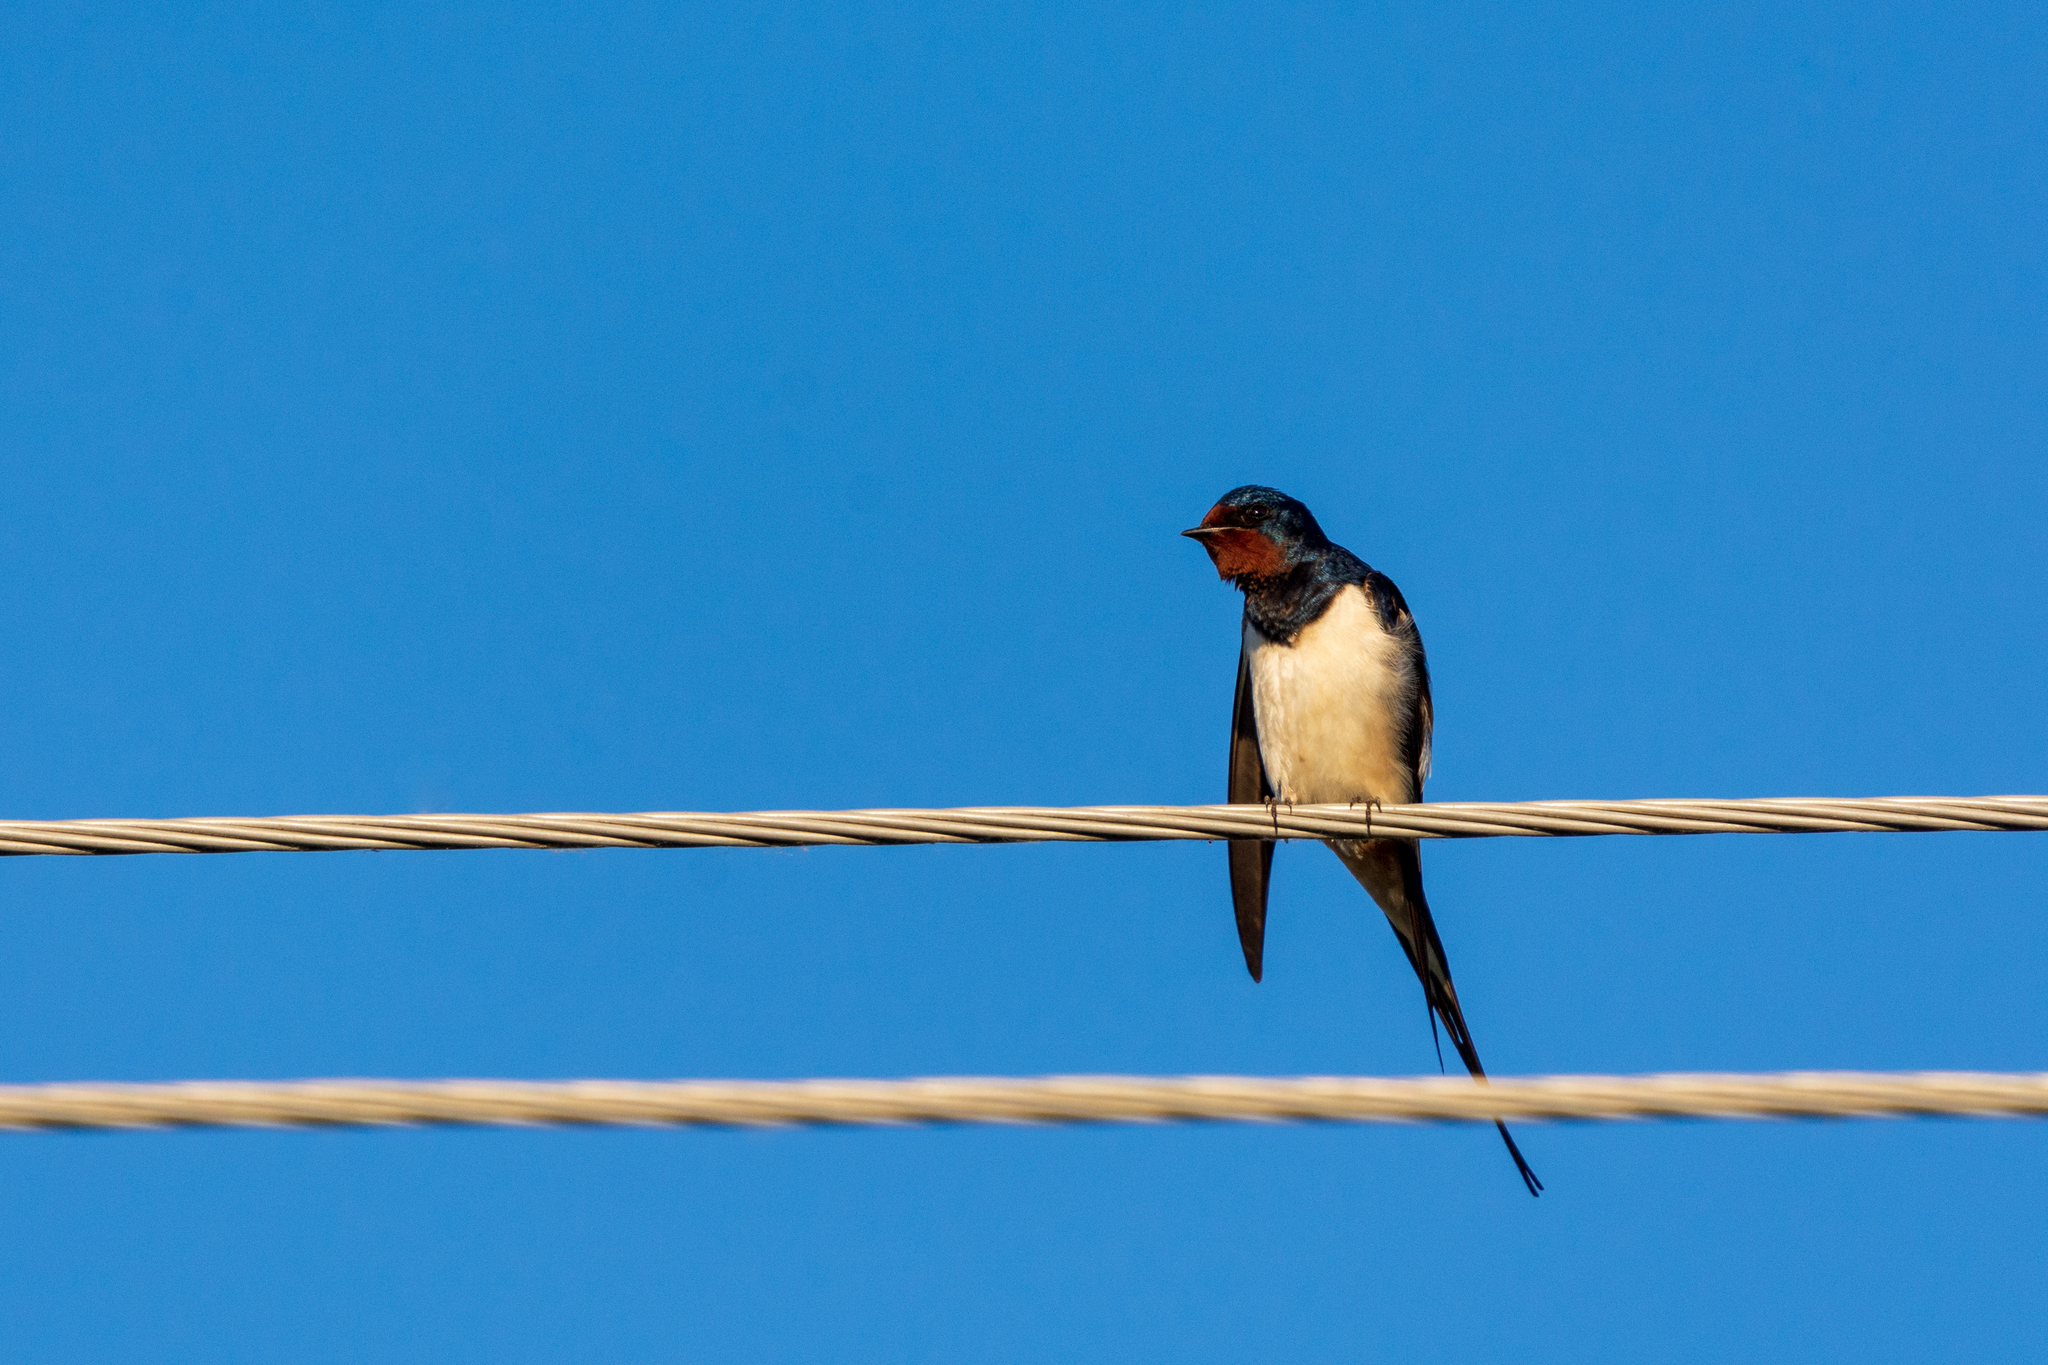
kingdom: Animalia
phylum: Chordata
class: Aves
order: Passeriformes
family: Hirundinidae
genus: Hirundo
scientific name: Hirundo rustica
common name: Barn swallow
